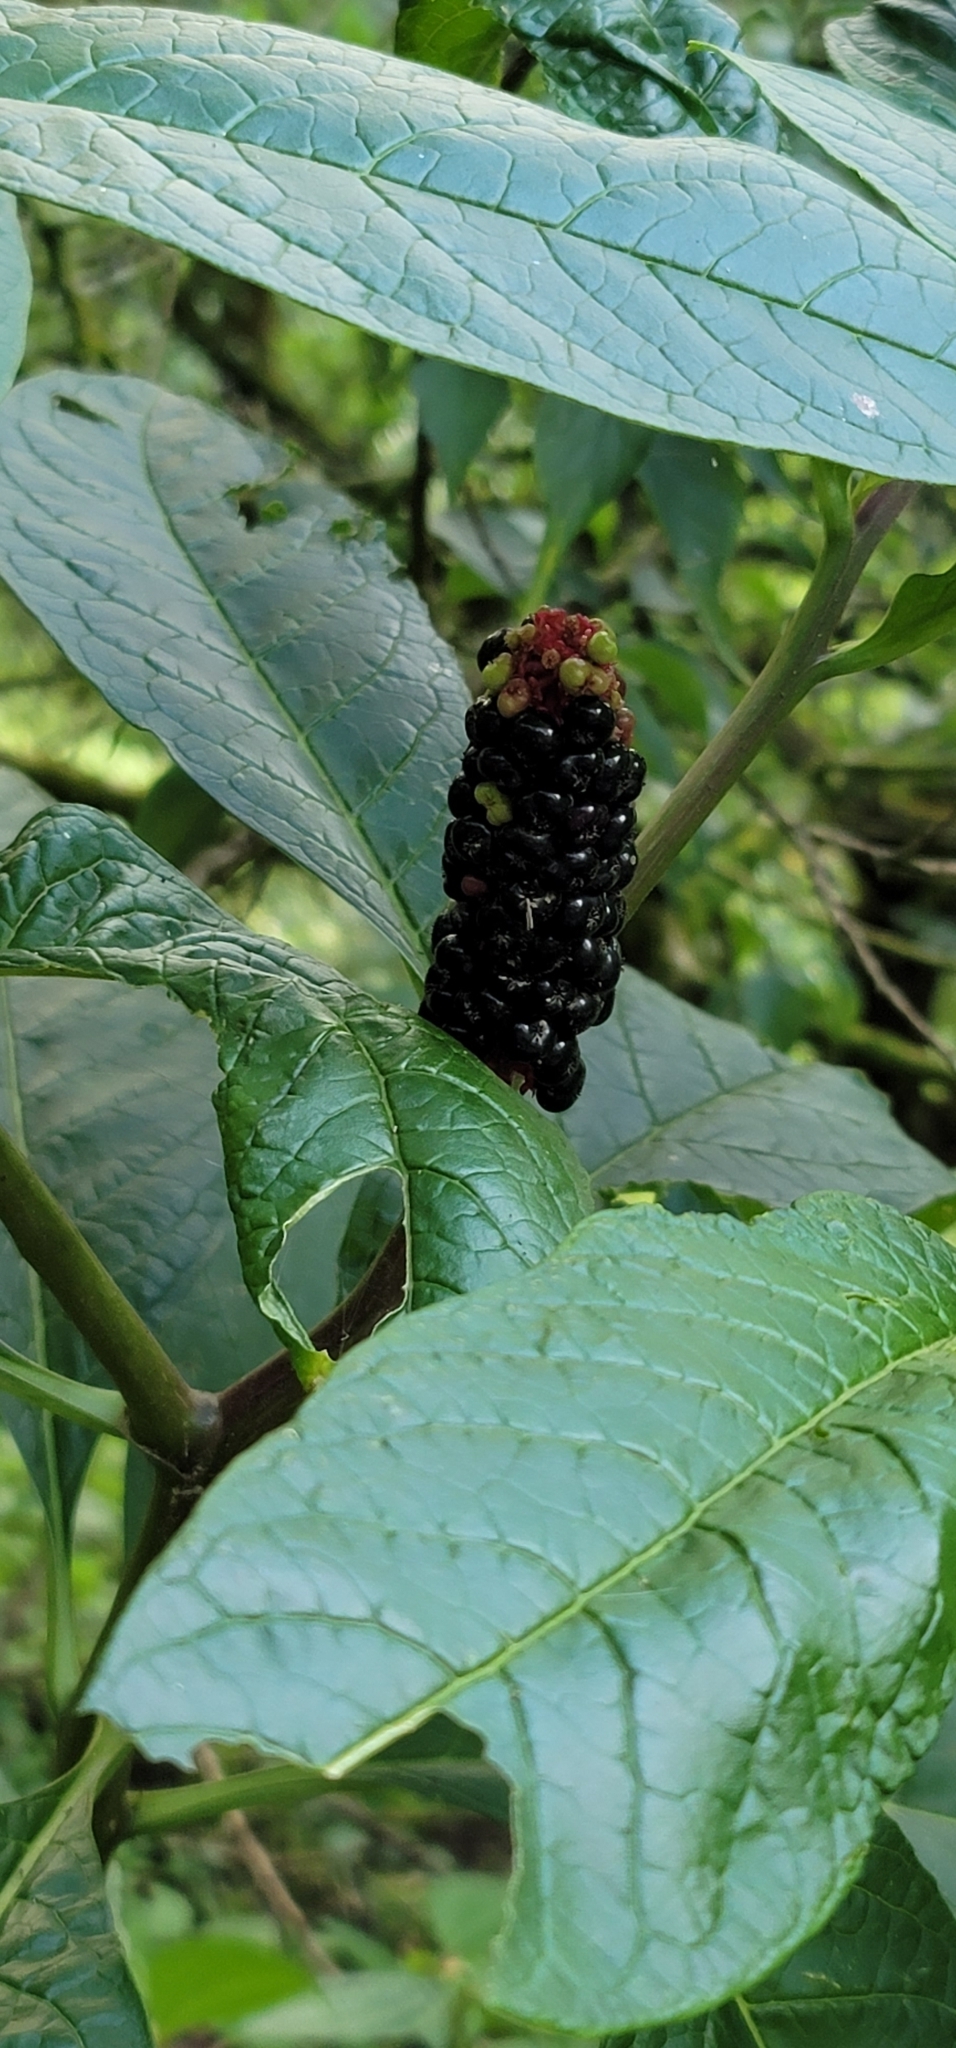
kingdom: Plantae
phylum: Tracheophyta
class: Magnoliopsida
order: Caryophyllales
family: Phytolaccaceae
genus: Phytolacca
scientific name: Phytolacca japonica
